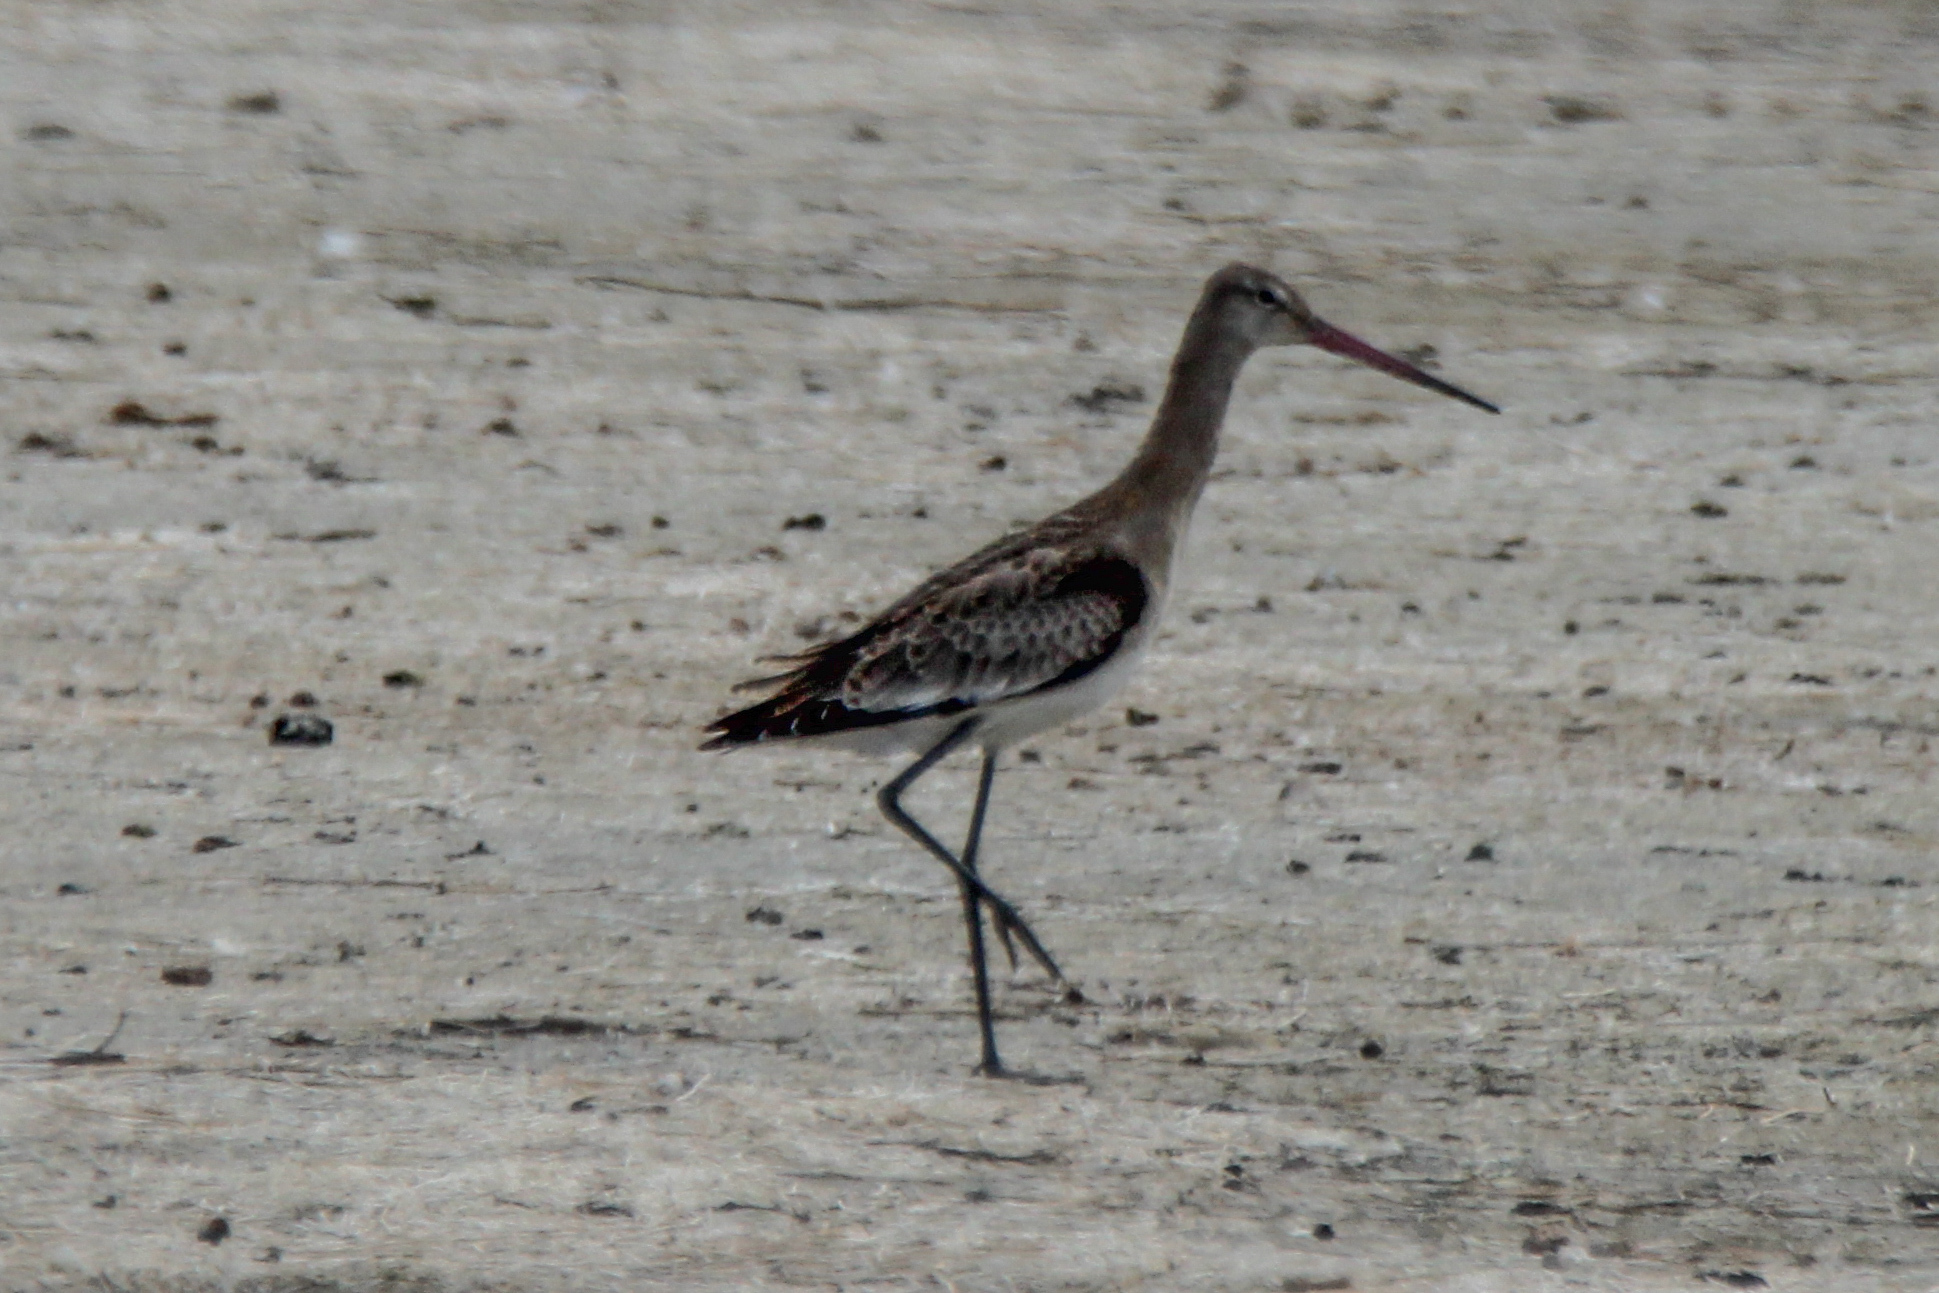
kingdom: Animalia
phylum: Chordata
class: Aves
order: Charadriiformes
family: Scolopacidae
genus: Limosa
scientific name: Limosa limosa
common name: Black-tailed godwit
